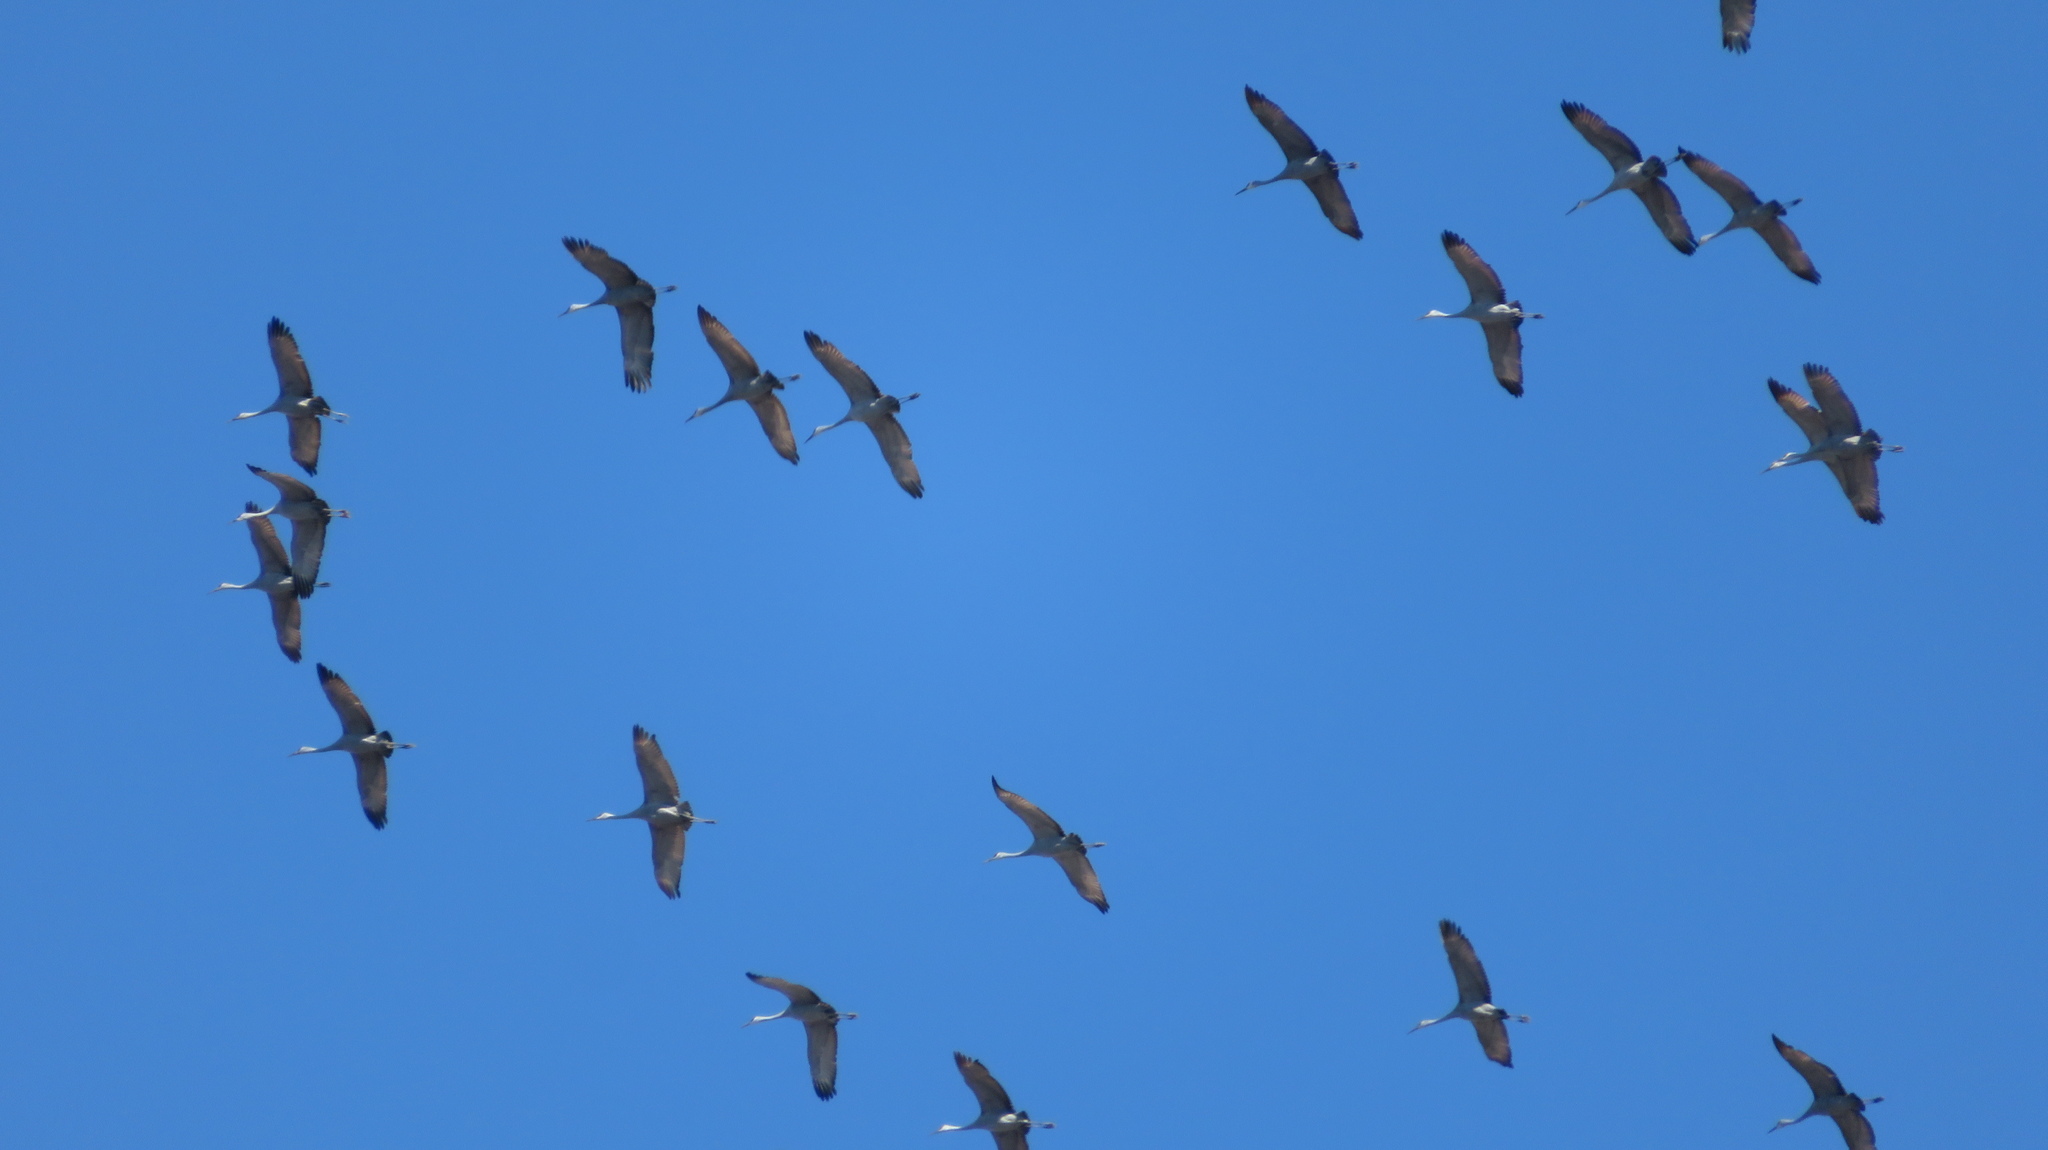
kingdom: Animalia
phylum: Chordata
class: Aves
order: Gruiformes
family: Gruidae
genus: Grus
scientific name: Grus canadensis
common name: Sandhill crane
